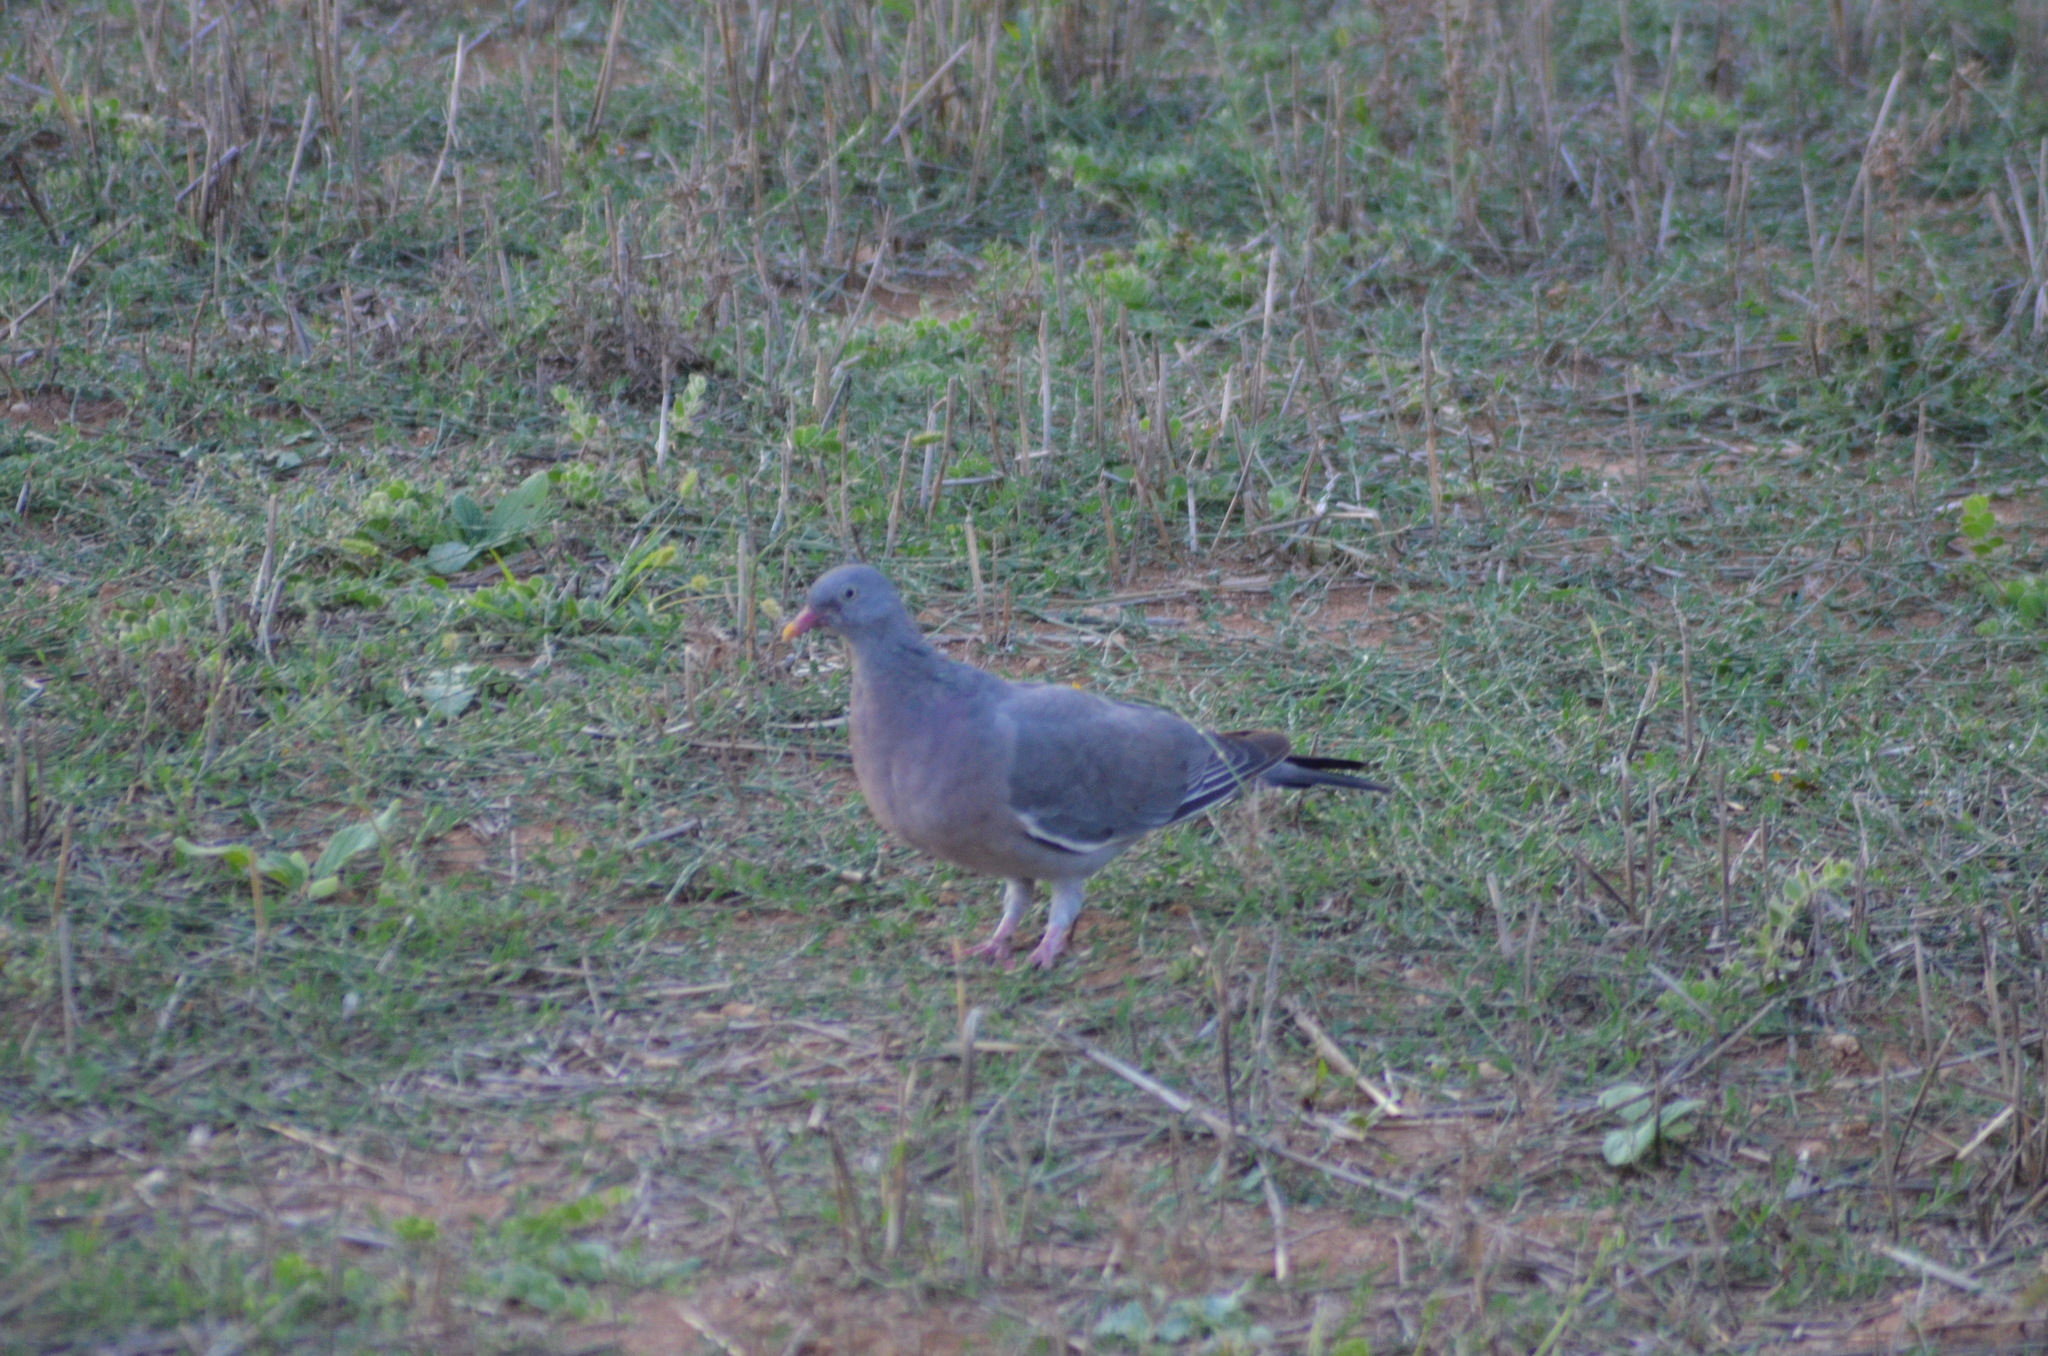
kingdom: Animalia
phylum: Chordata
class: Aves
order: Columbiformes
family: Columbidae
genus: Columba
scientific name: Columba palumbus
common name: Common wood pigeon
